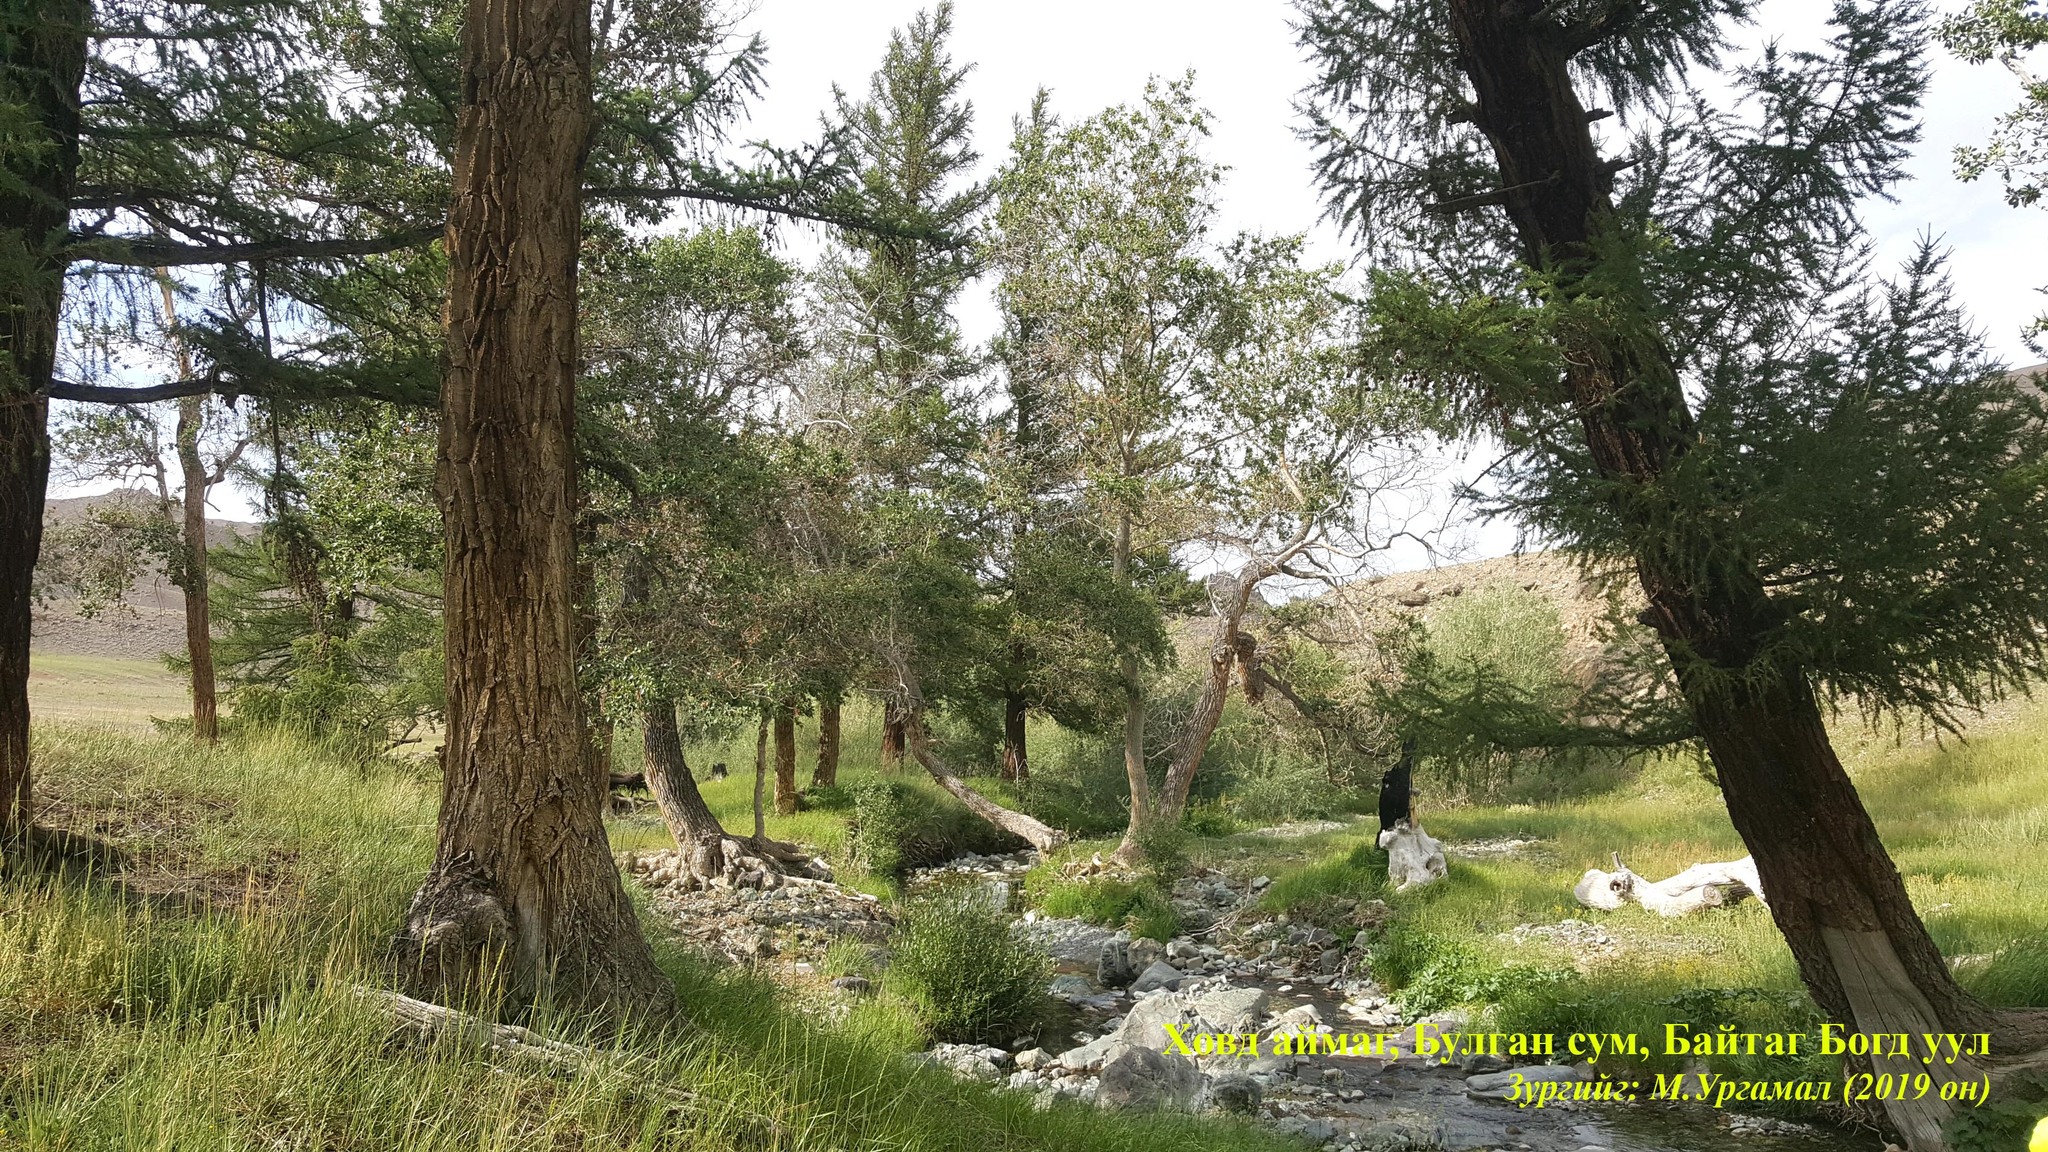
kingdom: Plantae
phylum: Tracheophyta
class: Pinopsida
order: Pinales
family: Pinaceae
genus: Larix
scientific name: Larix sibirica
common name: Siberian larch
